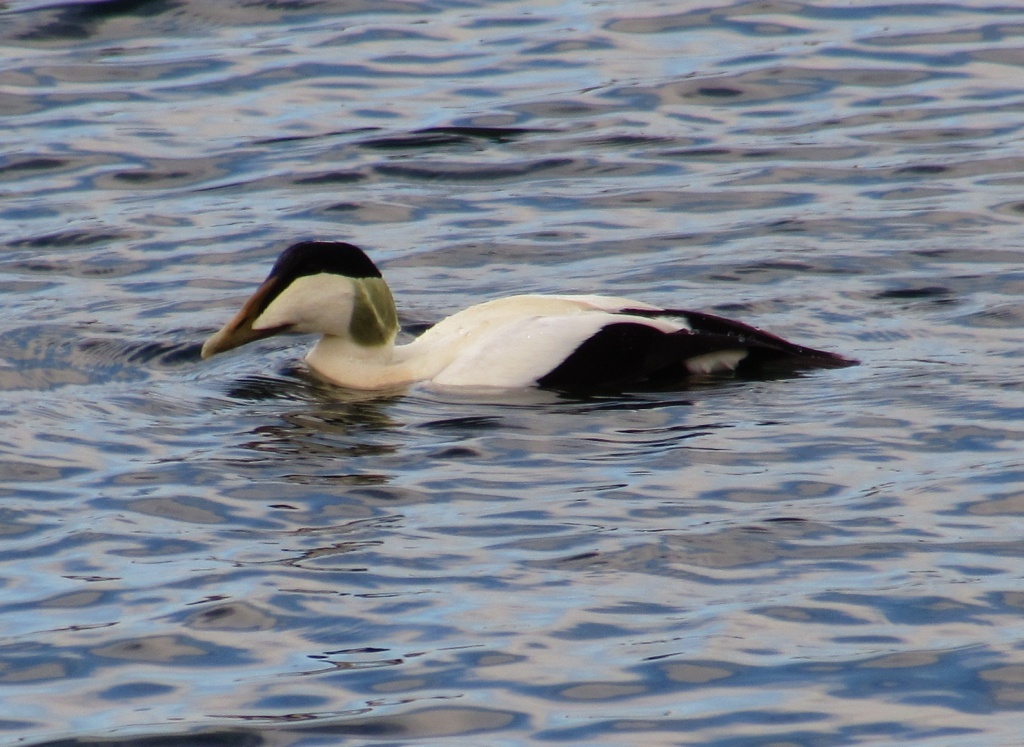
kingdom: Animalia
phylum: Chordata
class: Aves
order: Anseriformes
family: Anatidae
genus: Somateria
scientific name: Somateria mollissima
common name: Common eider
